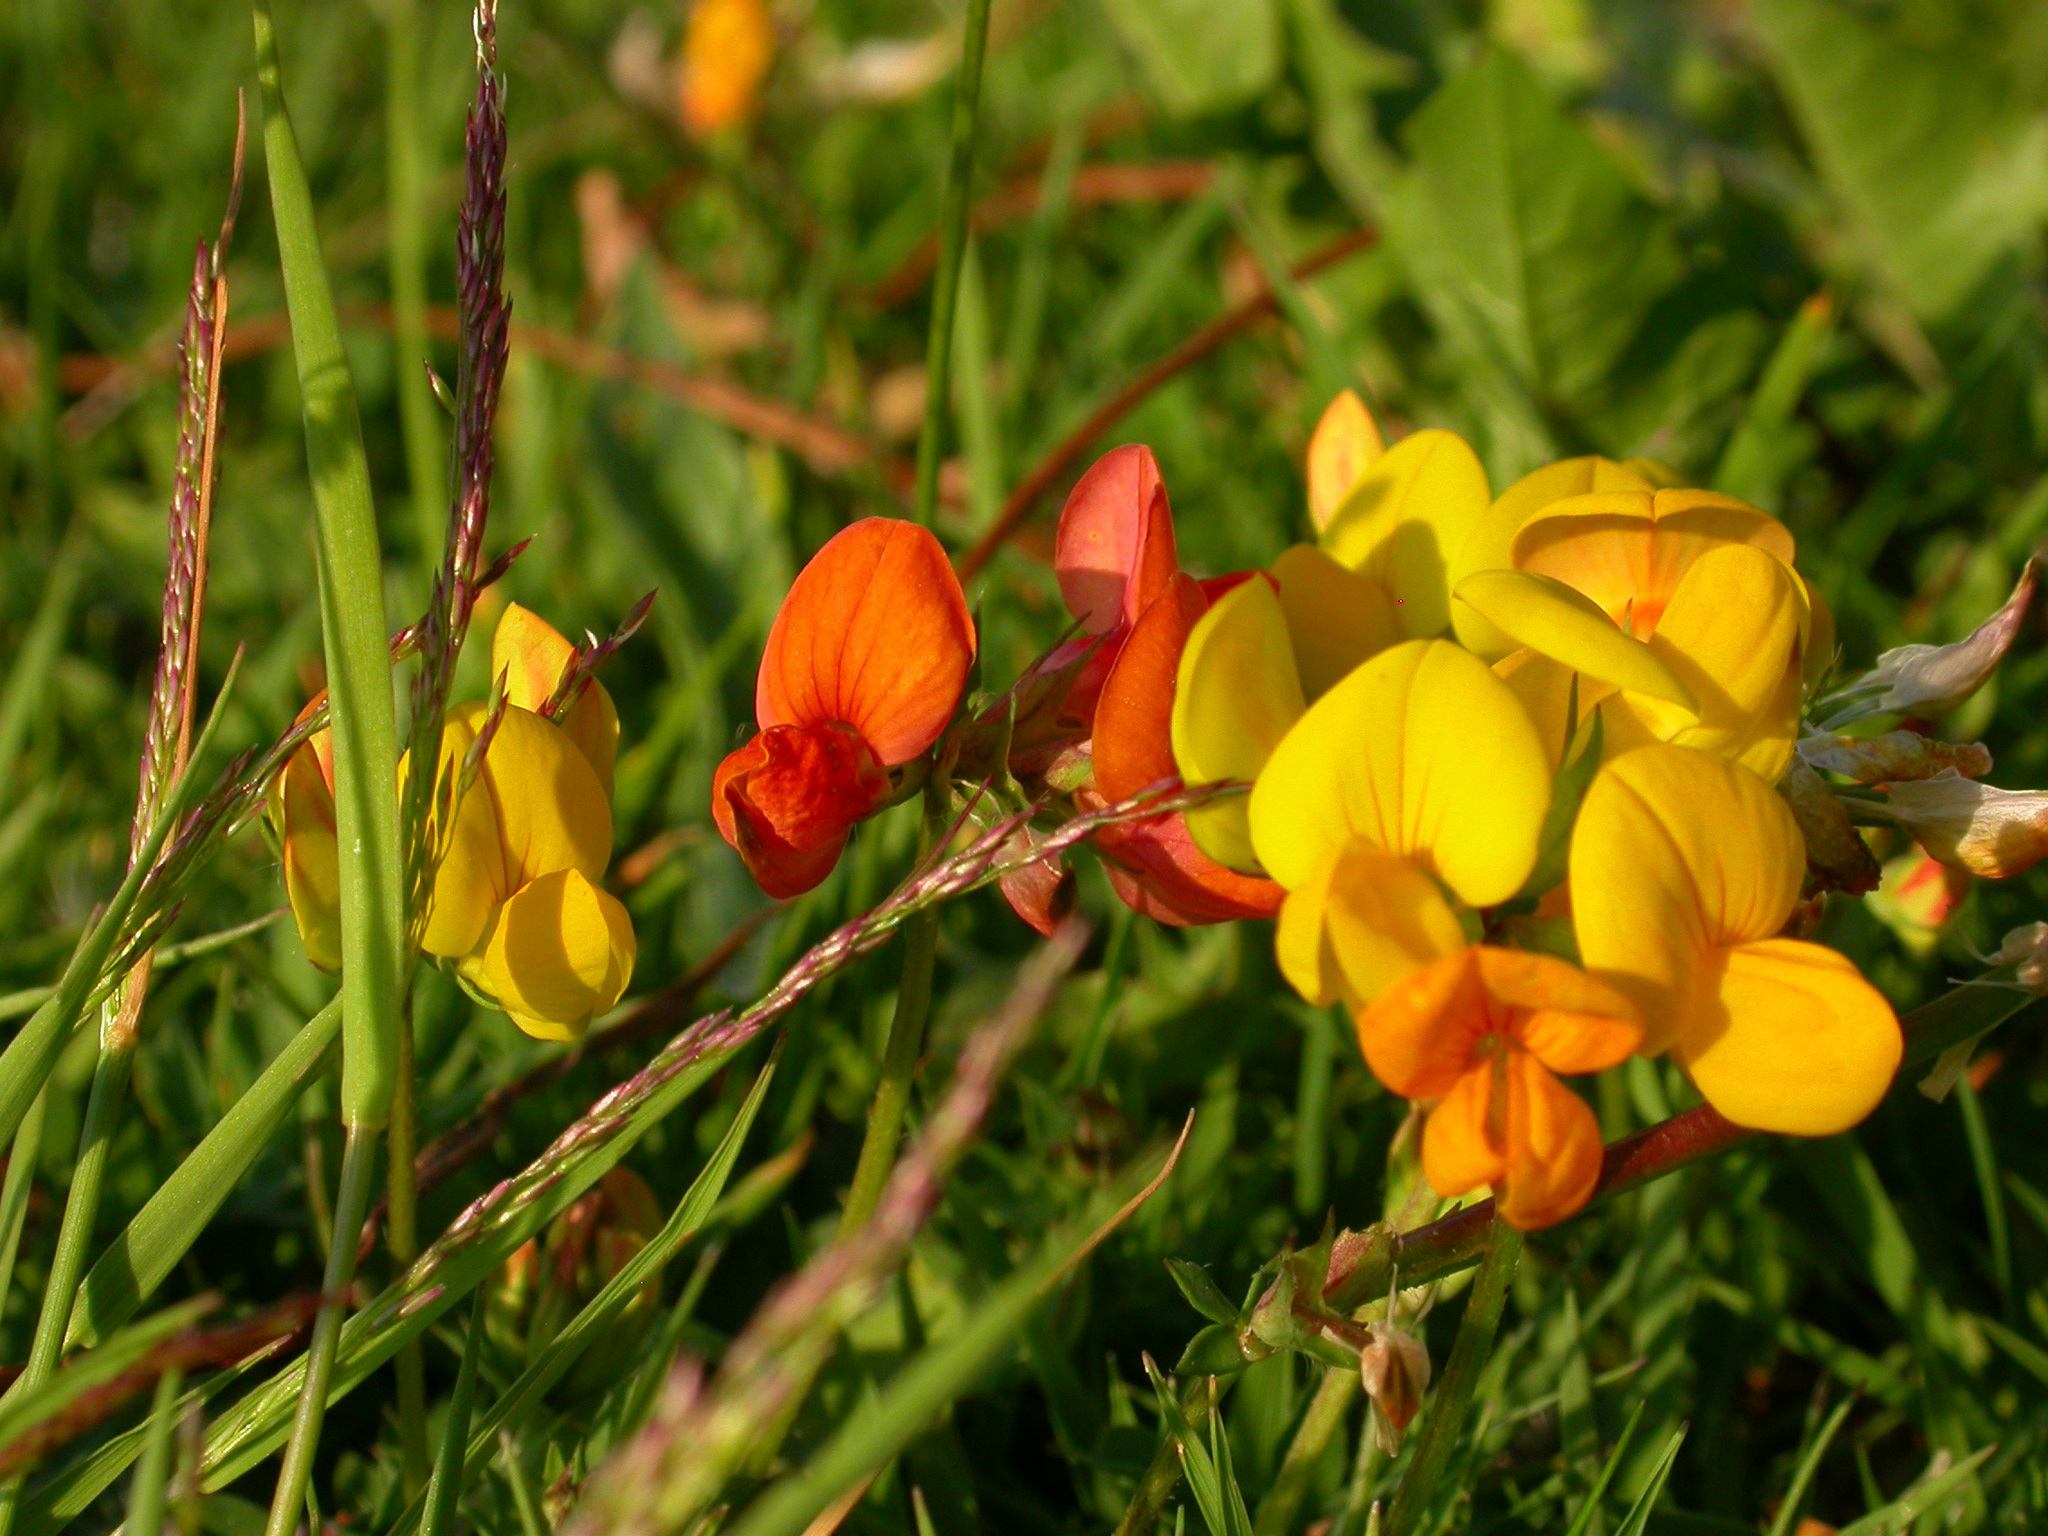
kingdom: Plantae
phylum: Tracheophyta
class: Magnoliopsida
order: Fabales
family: Fabaceae
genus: Lotus
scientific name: Lotus corniculatus
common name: Common bird's-foot-trefoil
